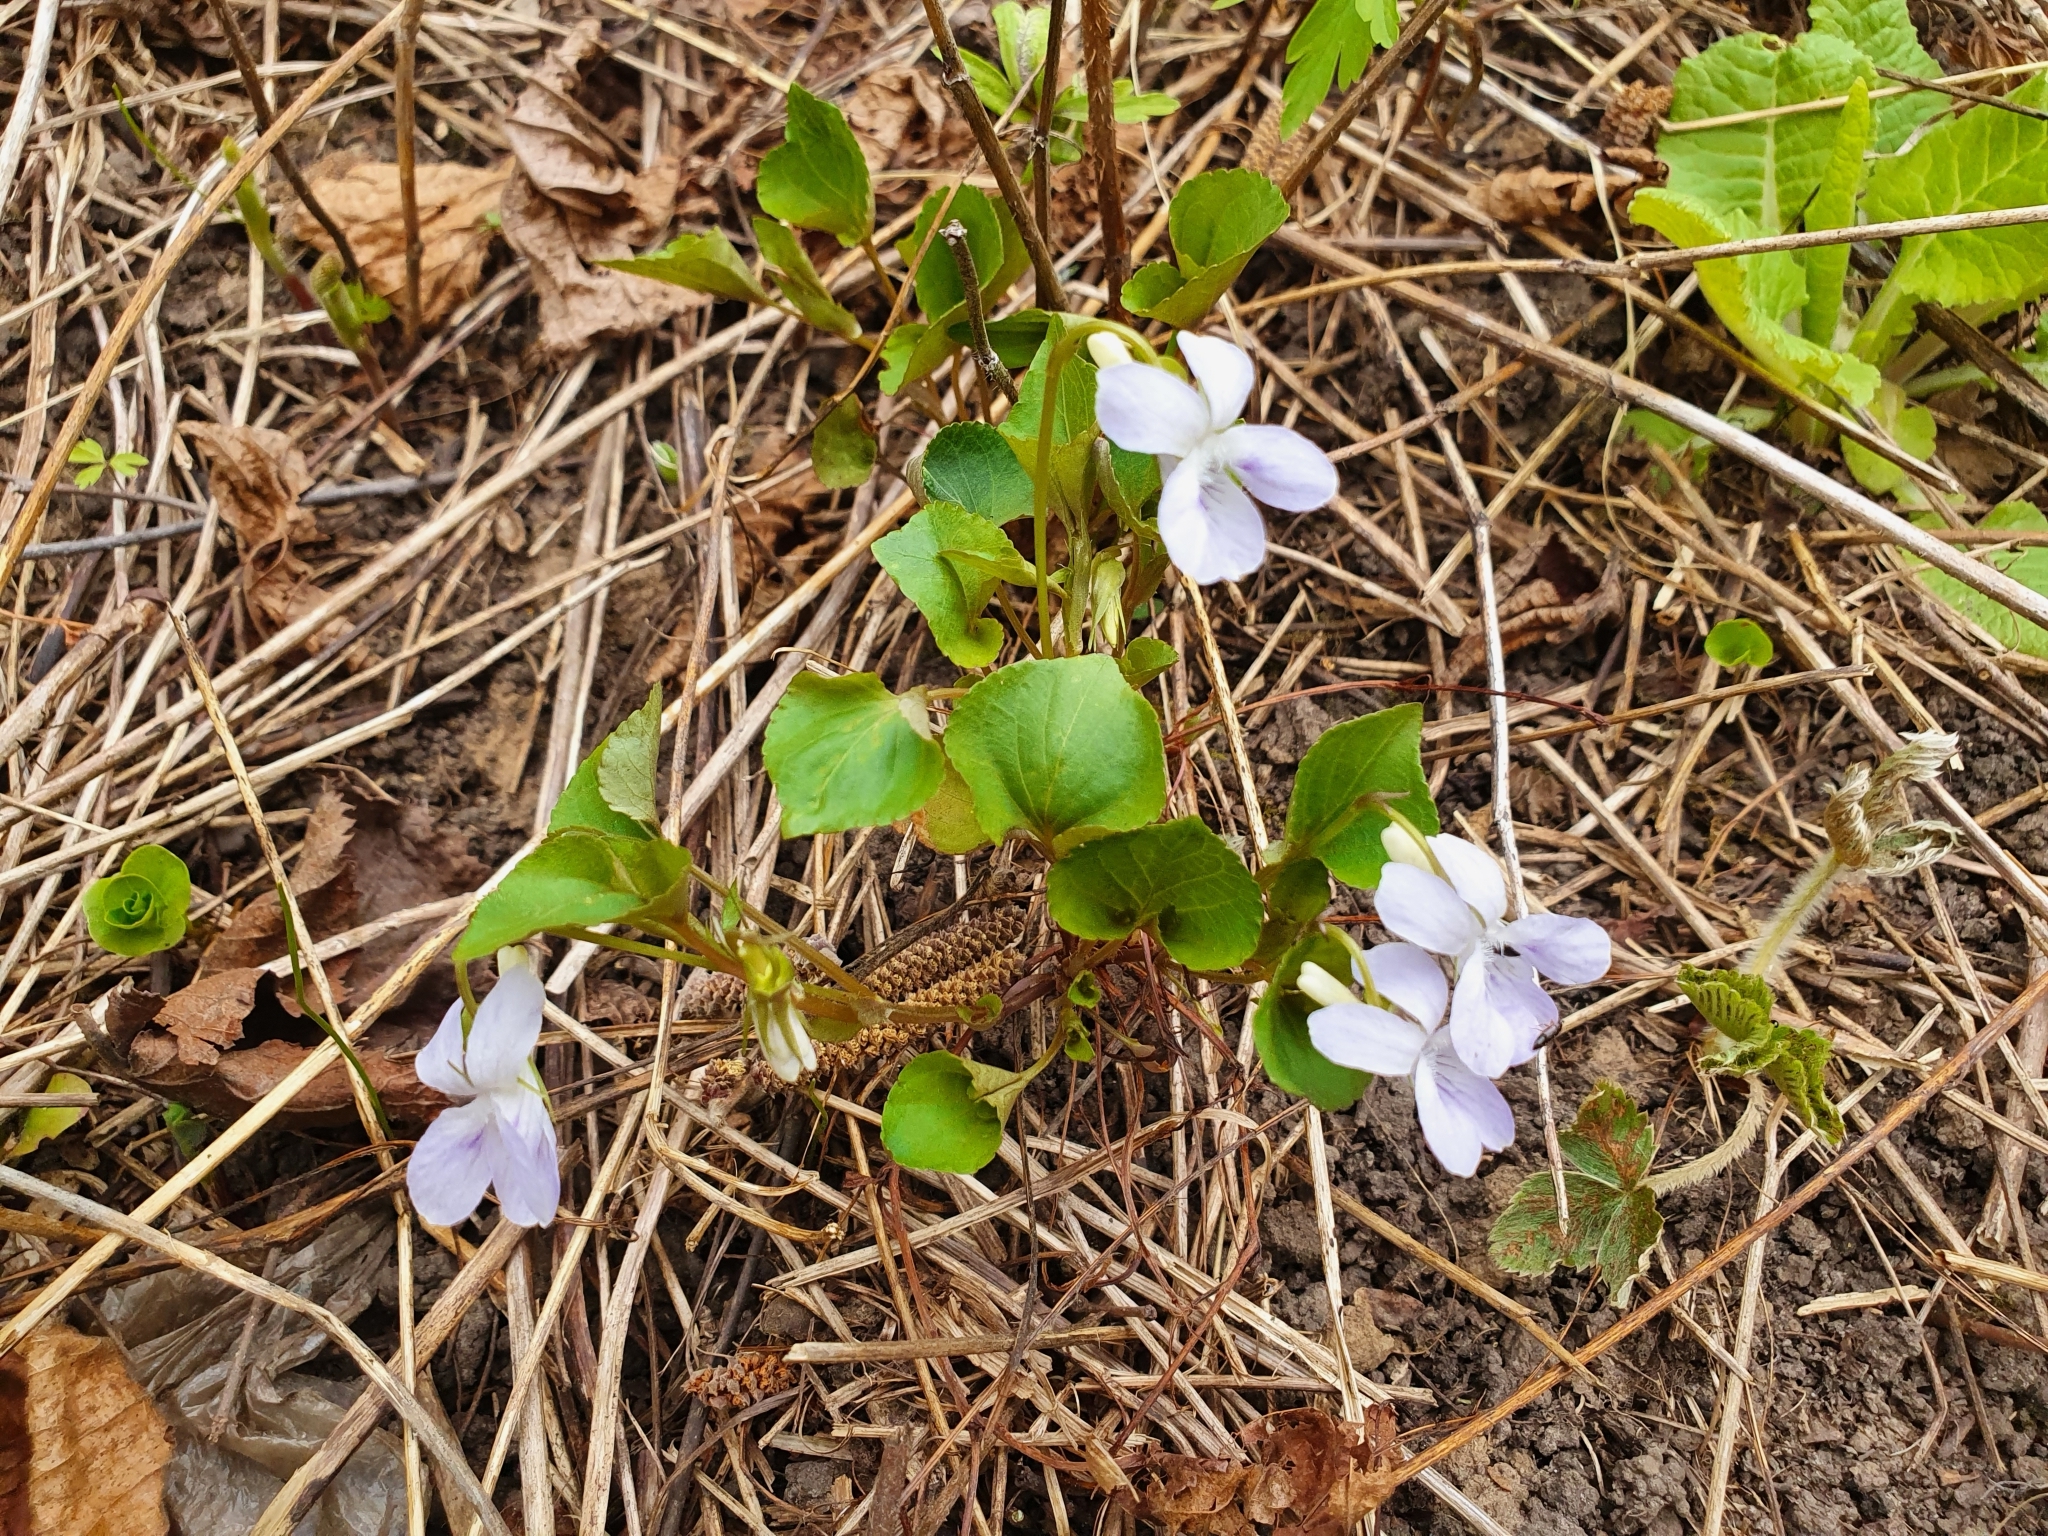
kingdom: Plantae
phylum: Tracheophyta
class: Magnoliopsida
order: Malpighiales
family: Violaceae
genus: Viola
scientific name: Viola rupestris
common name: Teesdale violet
